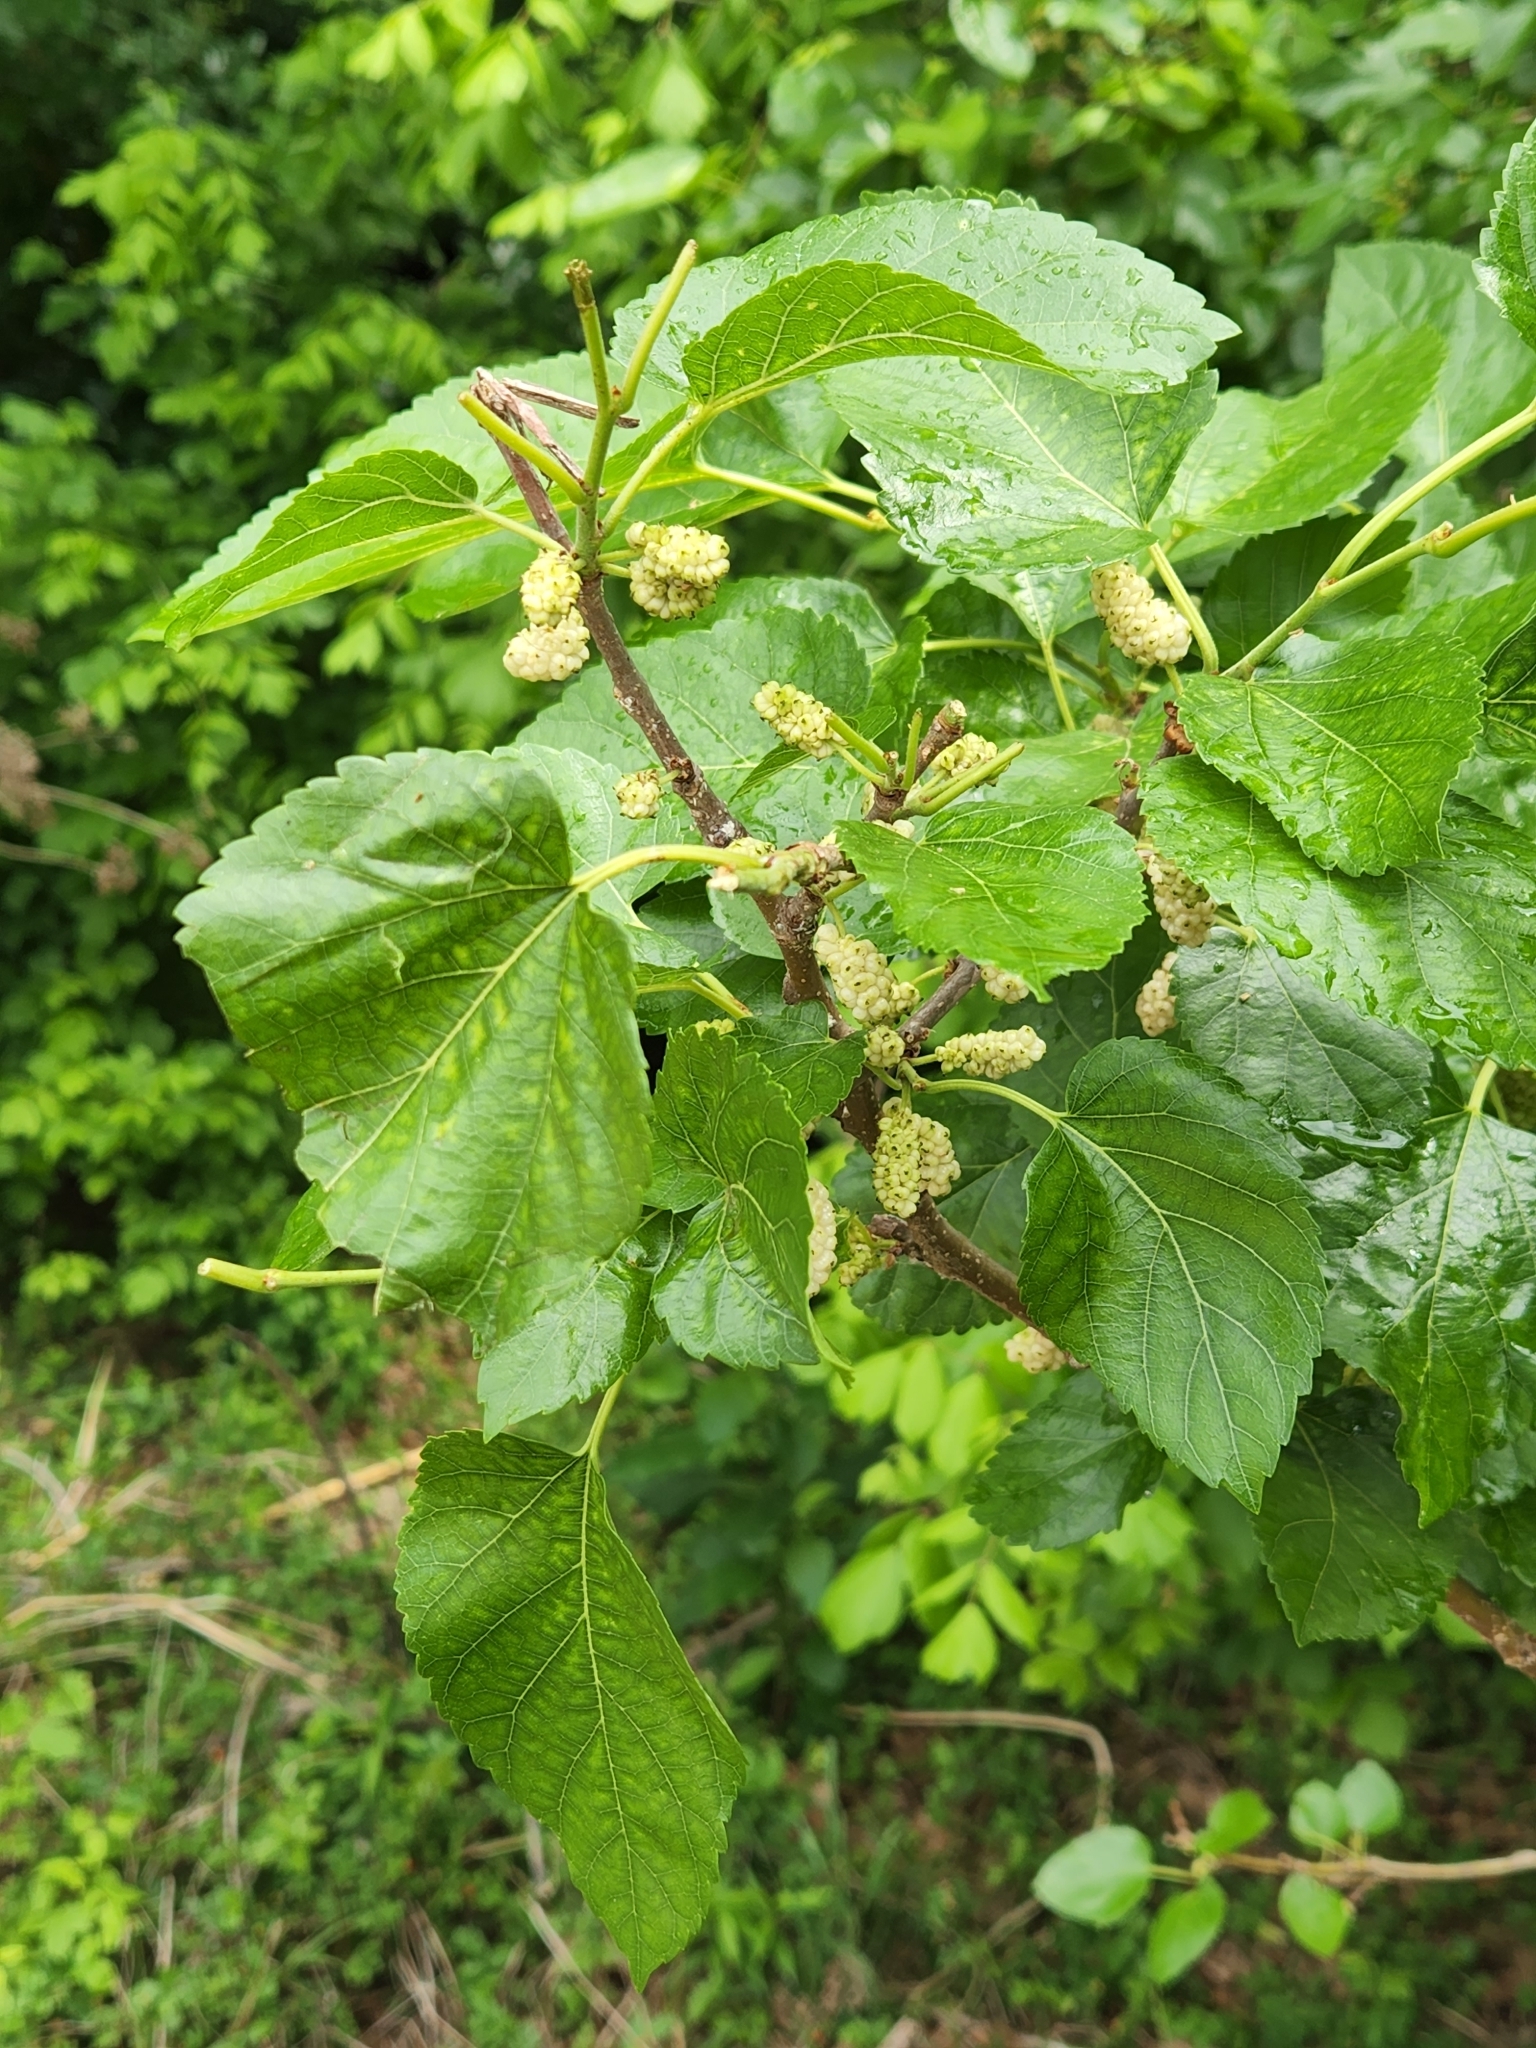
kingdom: Plantae
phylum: Tracheophyta
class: Magnoliopsida
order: Rosales
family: Moraceae
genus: Morus
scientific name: Morus alba
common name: White mulberry
